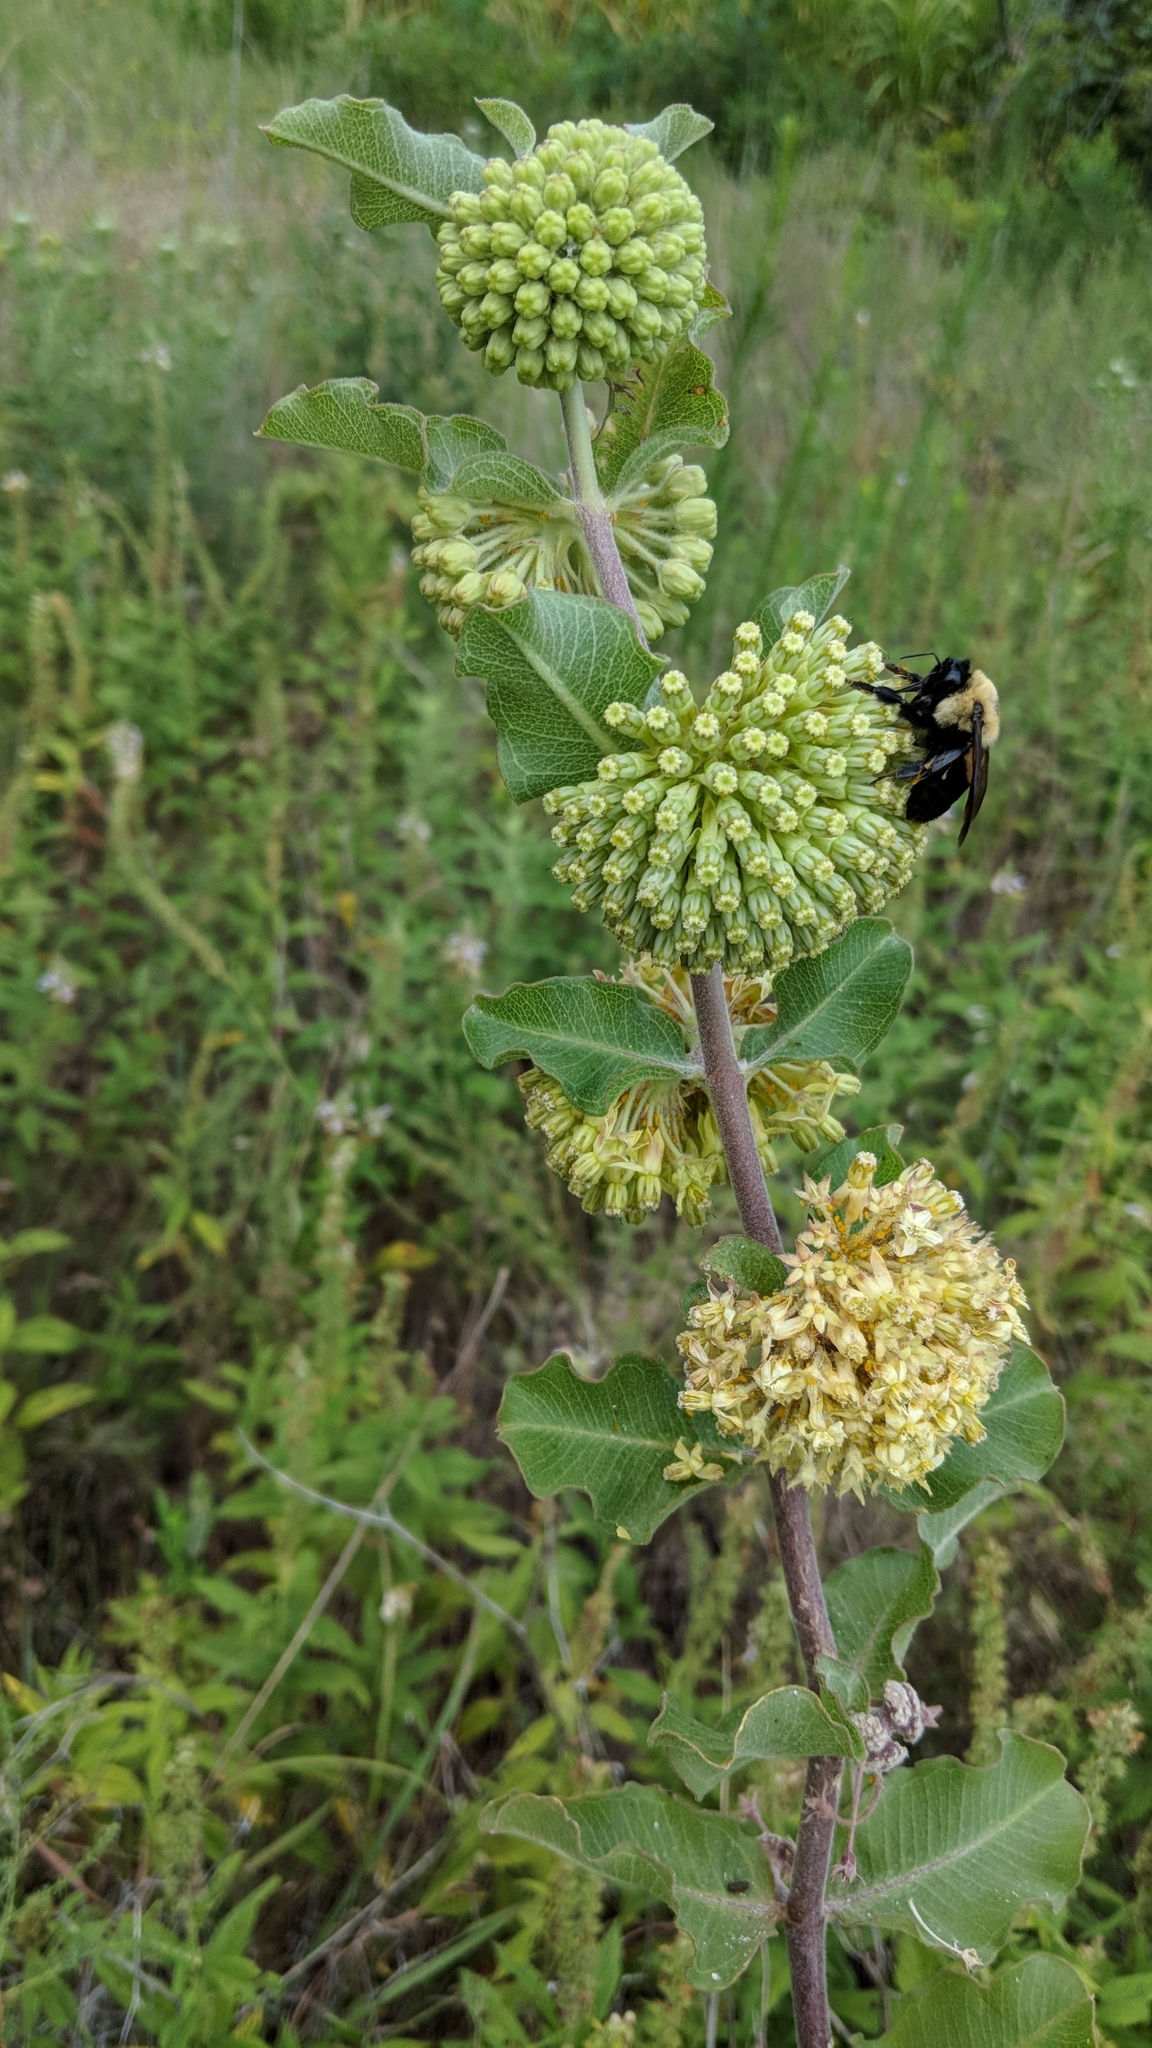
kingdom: Plantae
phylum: Tracheophyta
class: Magnoliopsida
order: Gentianales
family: Apocynaceae
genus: Asclepias
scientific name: Asclepias viridiflora
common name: Green comet milkweed
